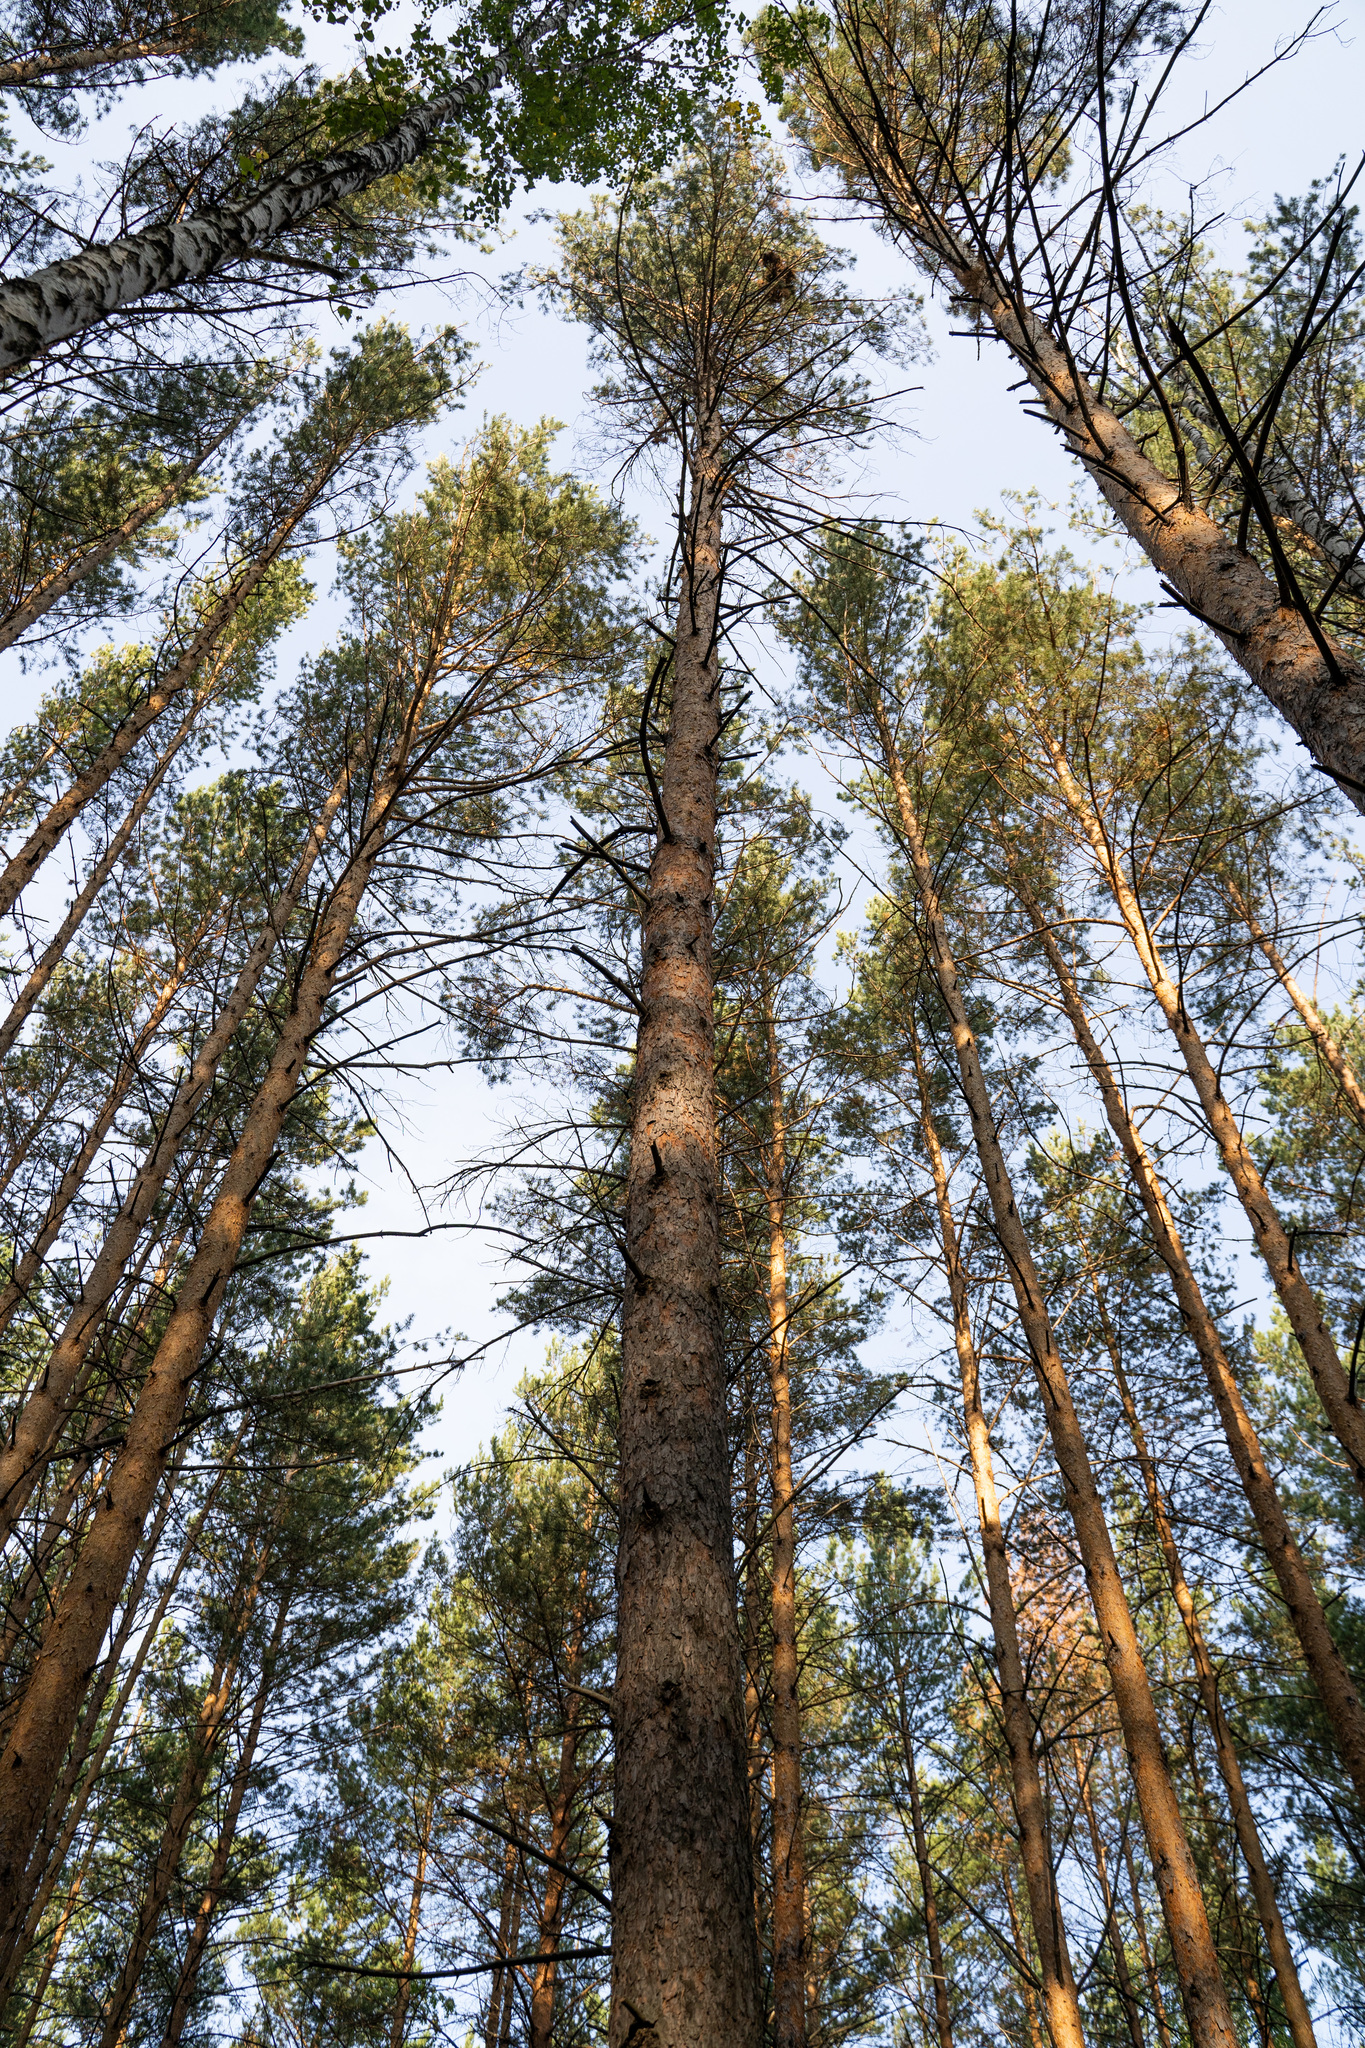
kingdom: Plantae
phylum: Tracheophyta
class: Pinopsida
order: Pinales
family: Pinaceae
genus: Pinus
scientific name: Pinus sylvestris
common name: Scots pine
